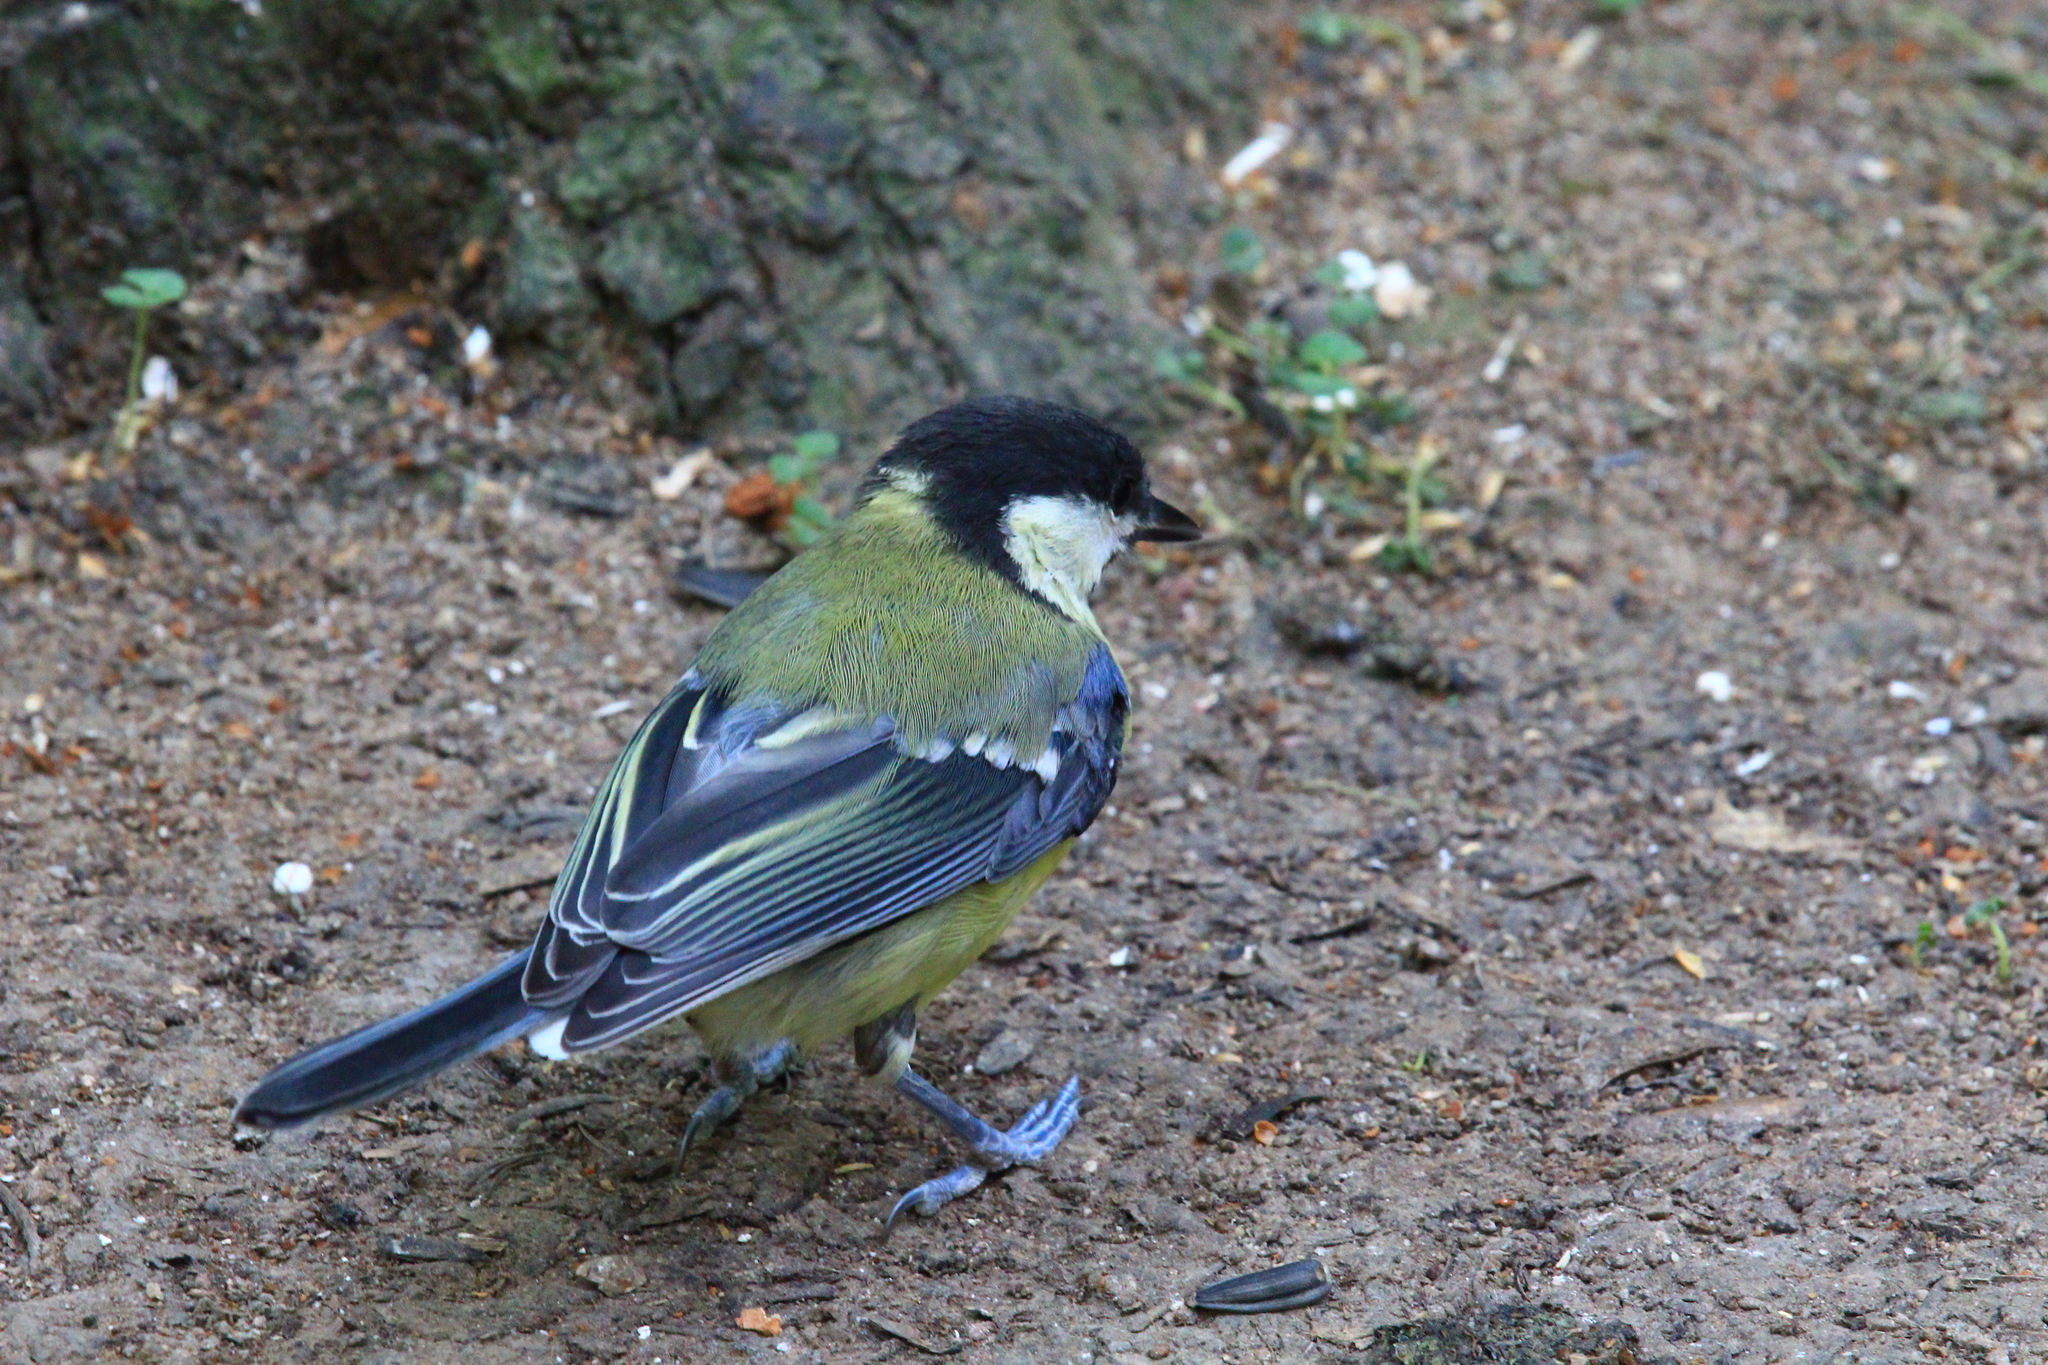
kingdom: Animalia
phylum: Chordata
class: Aves
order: Passeriformes
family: Paridae
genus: Parus
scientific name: Parus major
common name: Great tit
